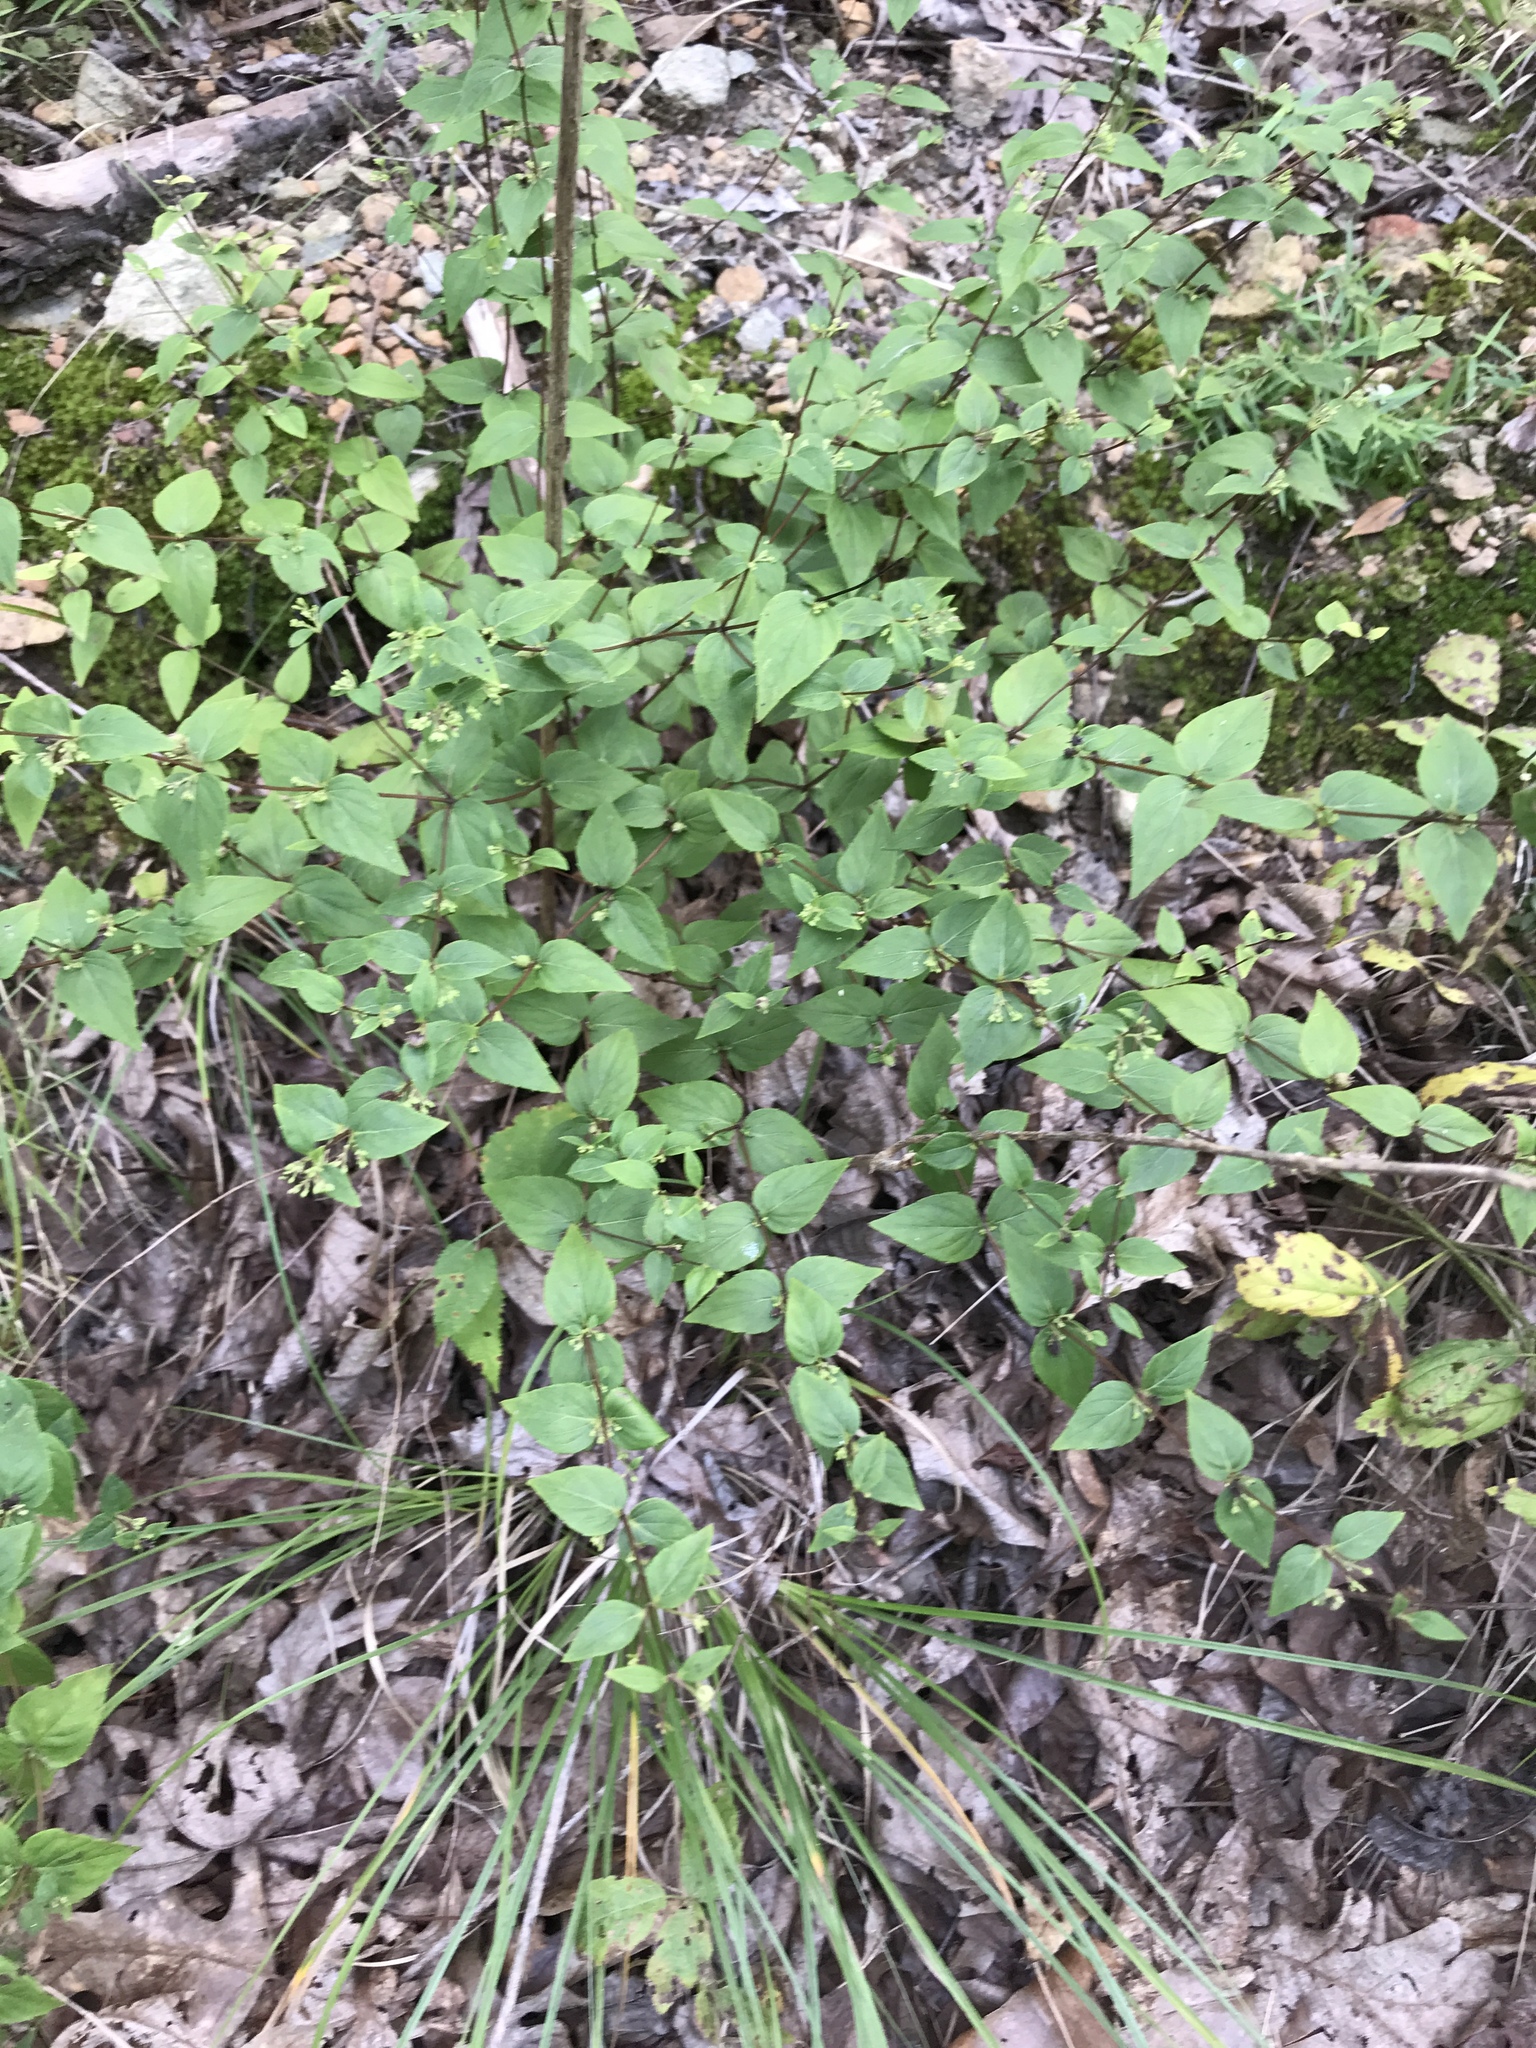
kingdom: Plantae
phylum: Tracheophyta
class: Magnoliopsida
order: Lamiales
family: Lamiaceae
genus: Cunila
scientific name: Cunila origanoides
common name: American dittany
